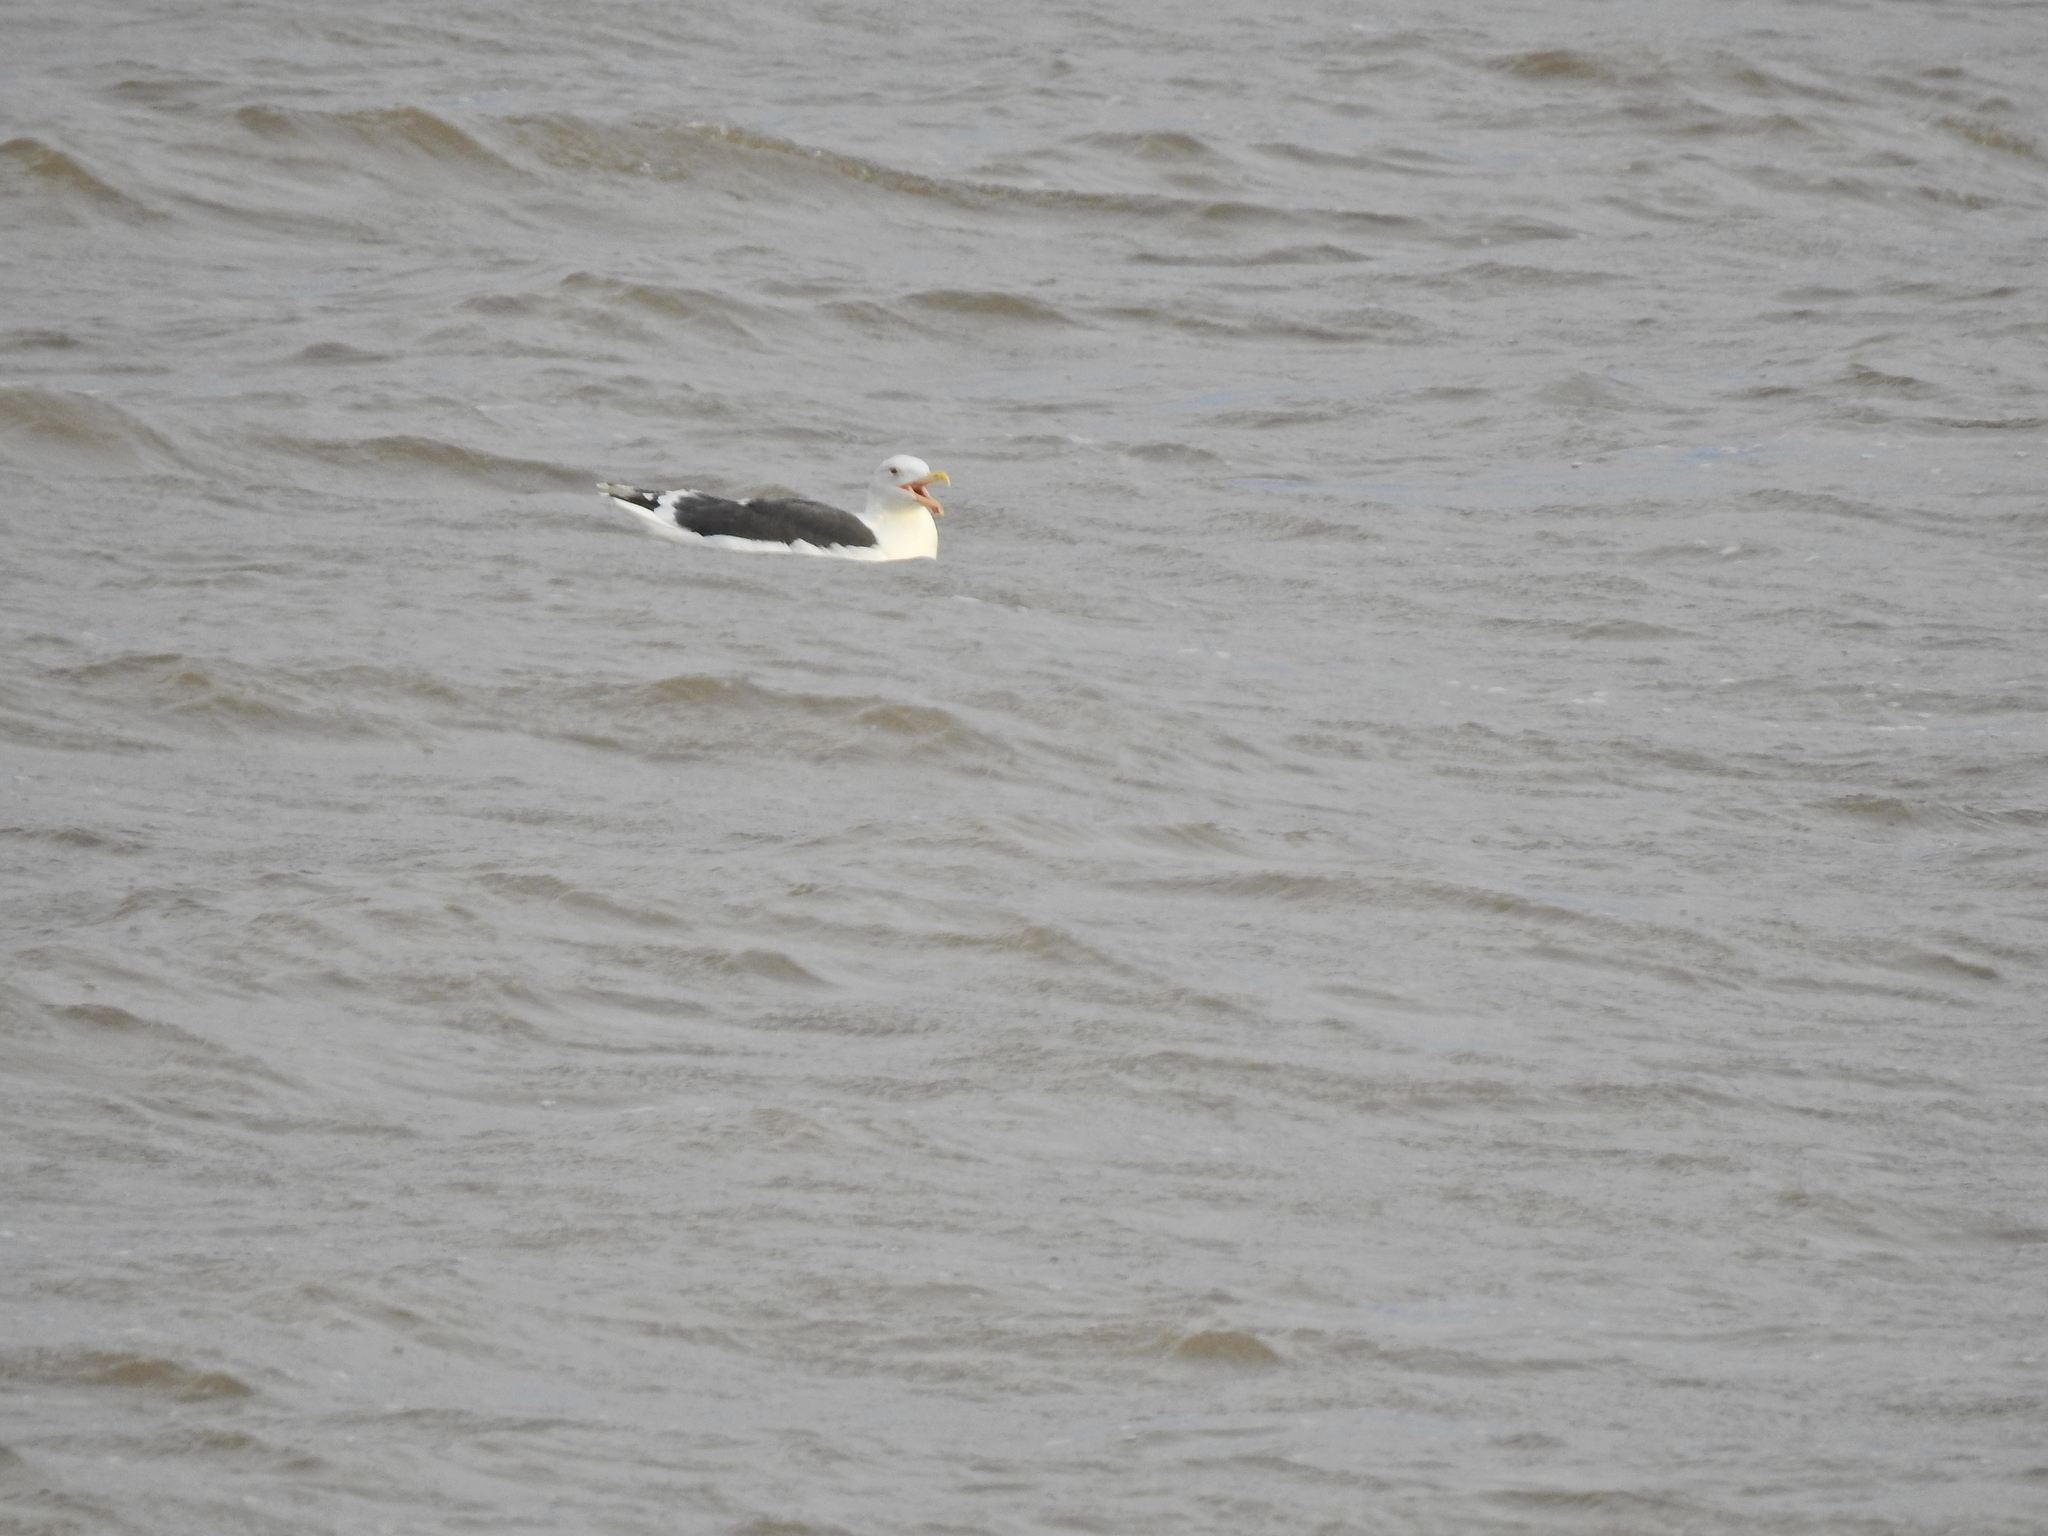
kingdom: Animalia
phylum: Chordata
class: Aves
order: Charadriiformes
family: Laridae
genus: Larus
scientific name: Larus marinus
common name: Great black-backed gull
